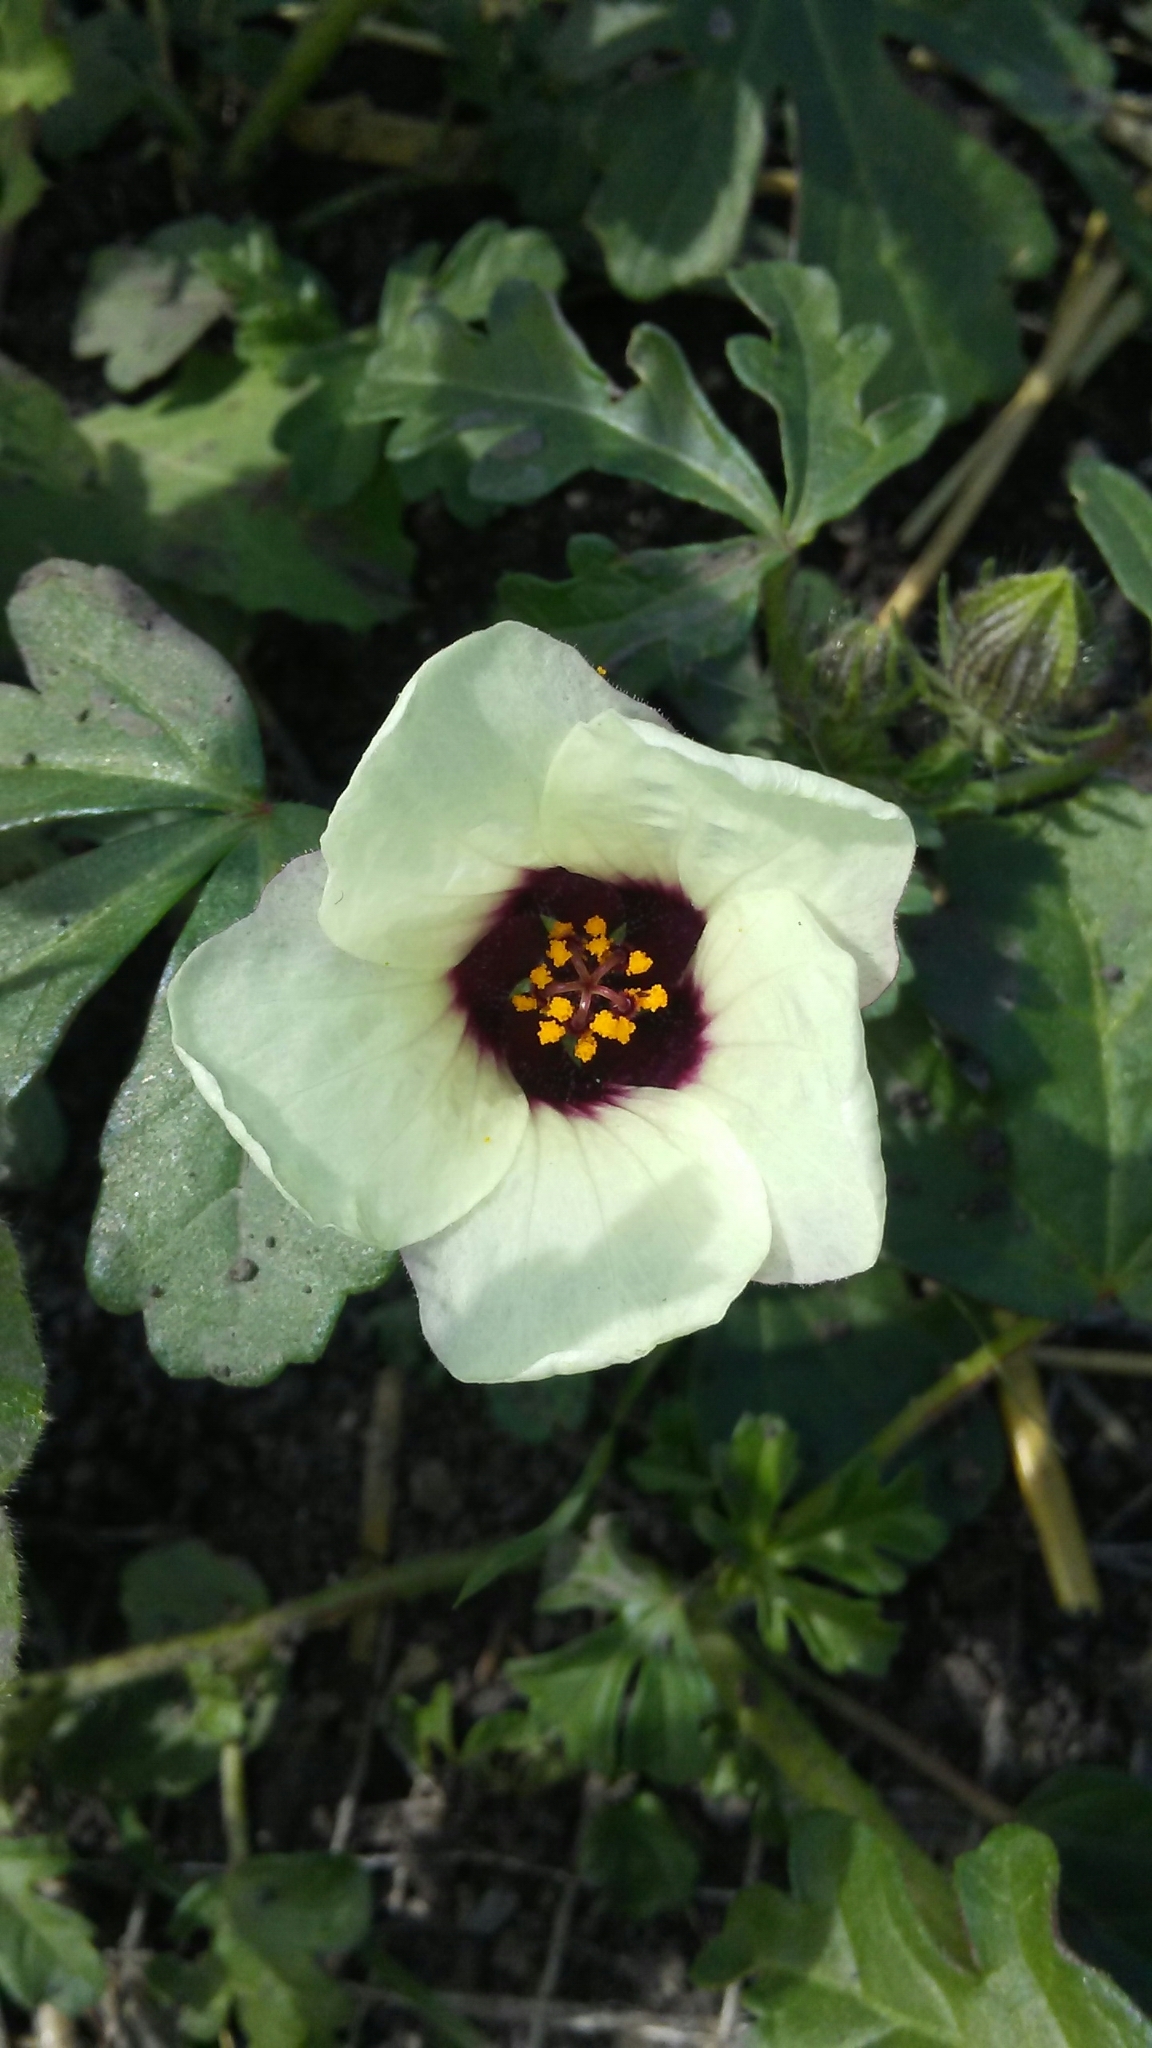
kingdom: Plantae
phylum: Tracheophyta
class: Magnoliopsida
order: Malvales
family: Malvaceae
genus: Hibiscus
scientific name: Hibiscus trionum
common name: Bladder ketmia
